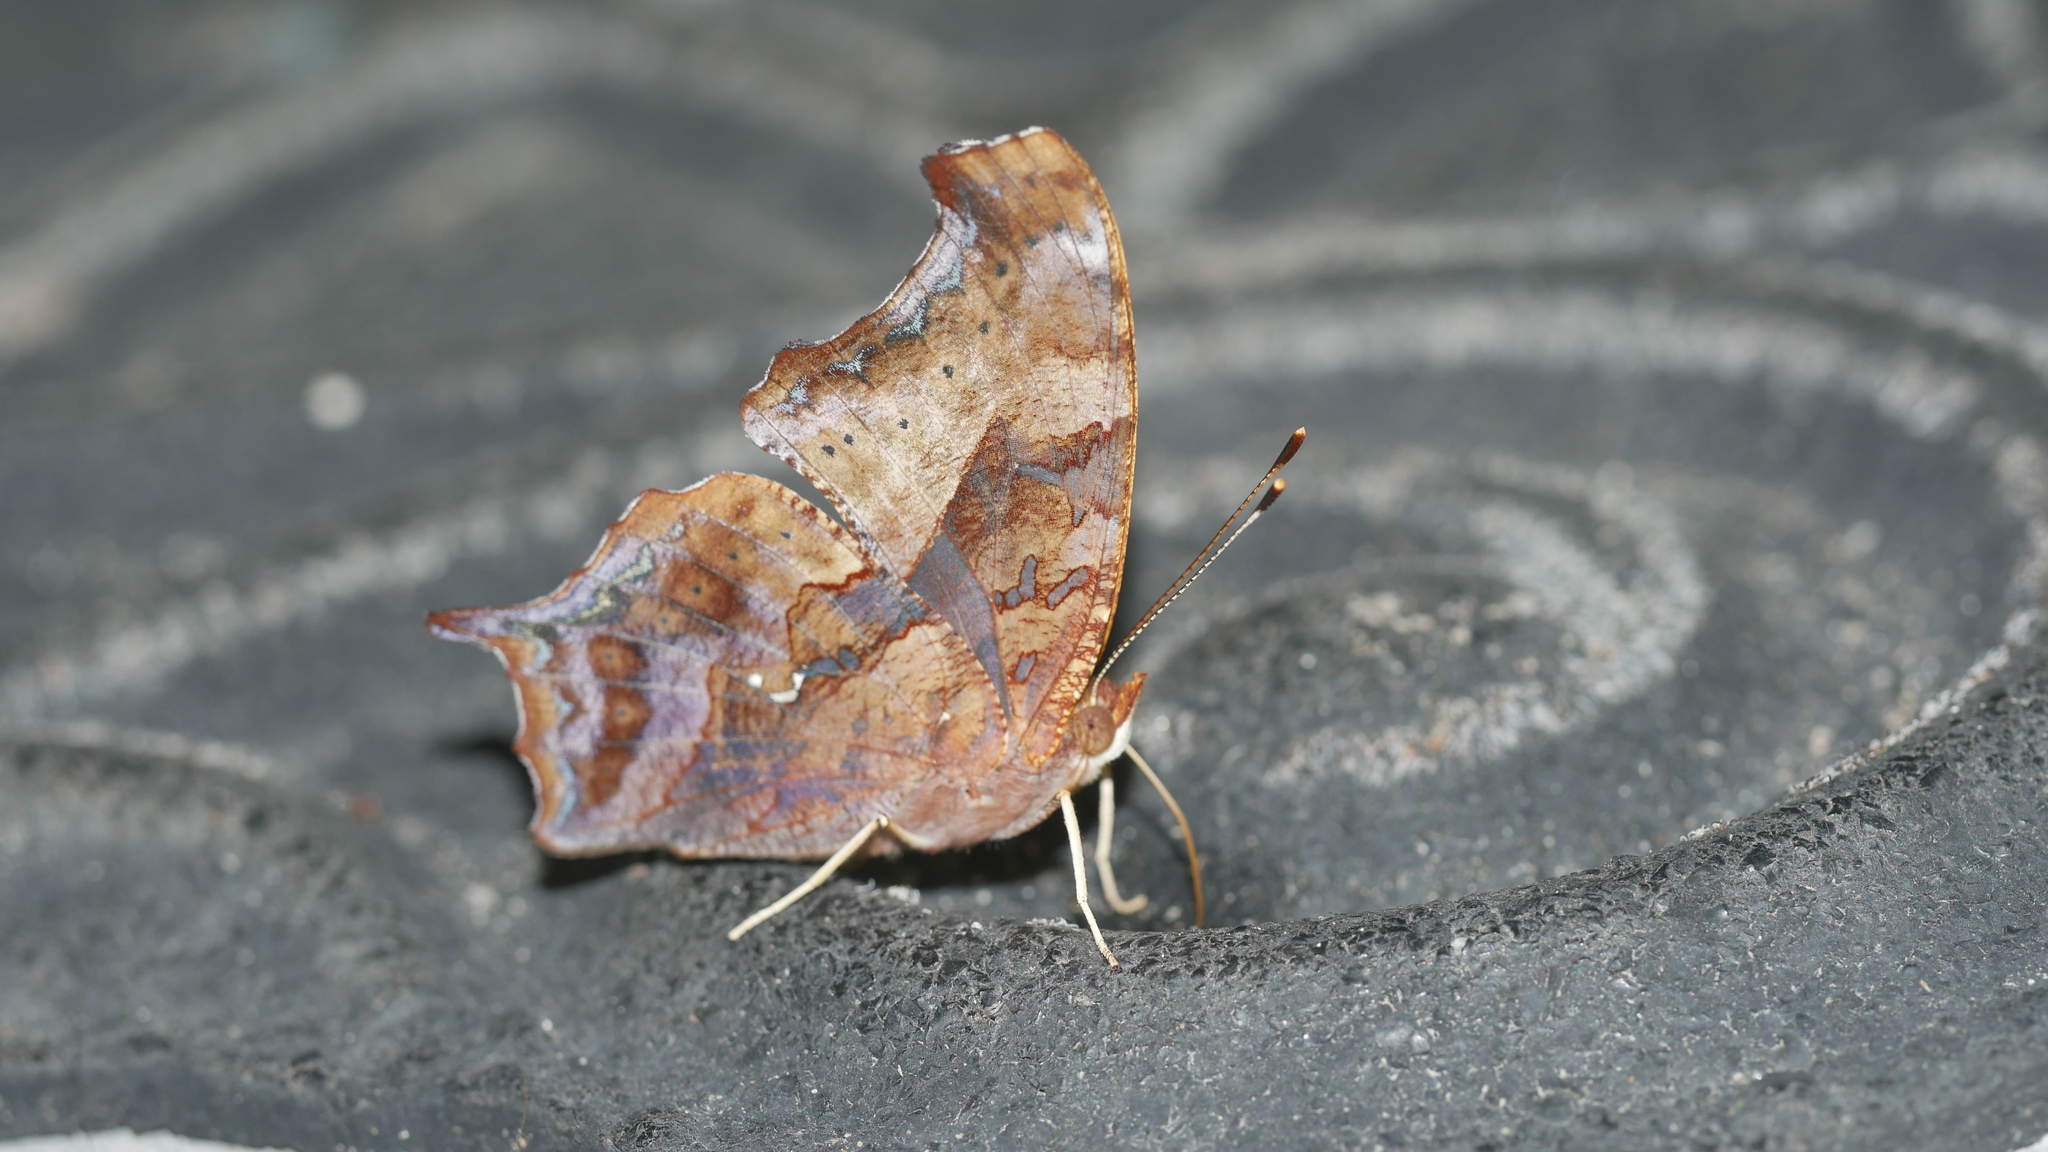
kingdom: Animalia
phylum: Arthropoda
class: Insecta
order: Lepidoptera
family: Nymphalidae
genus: Polygonia
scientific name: Polygonia interrogationis
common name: Question mark
